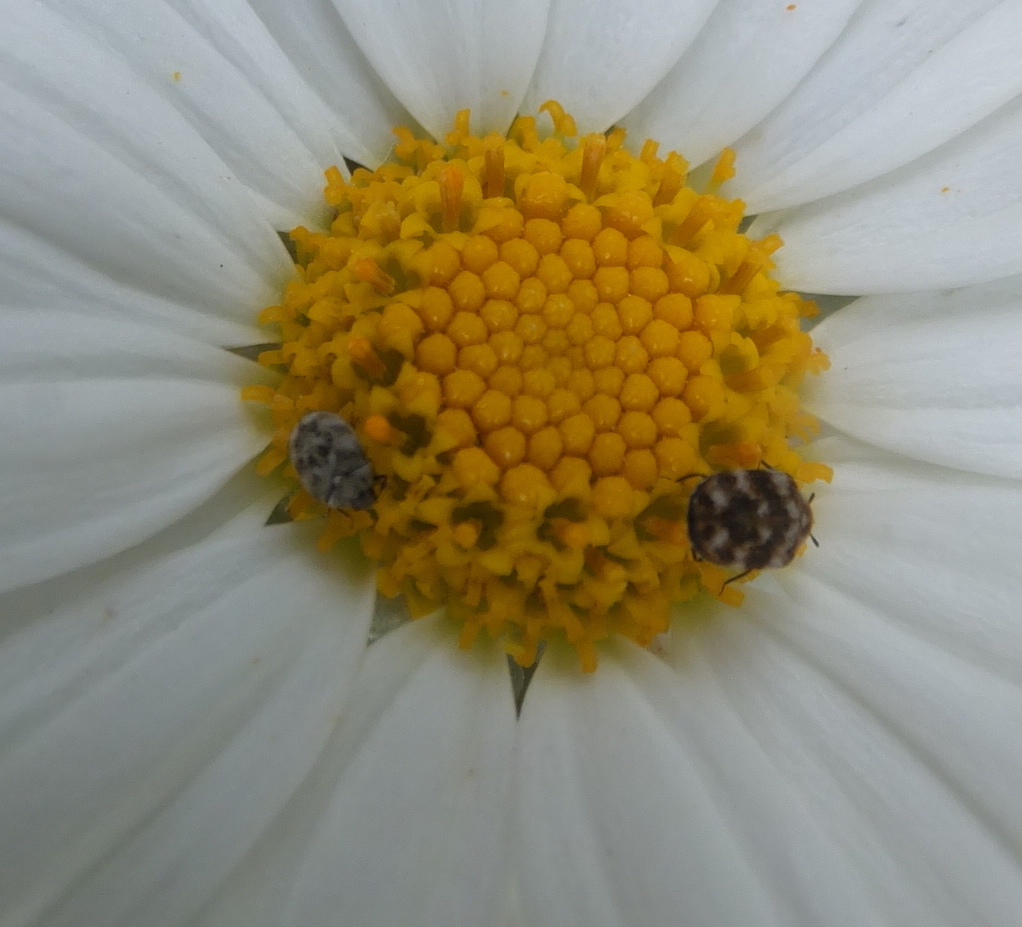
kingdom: Animalia
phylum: Arthropoda
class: Insecta
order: Coleoptera
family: Dermestidae
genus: Anthrenus
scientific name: Anthrenus verbasci
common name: Varied carpet beetle
